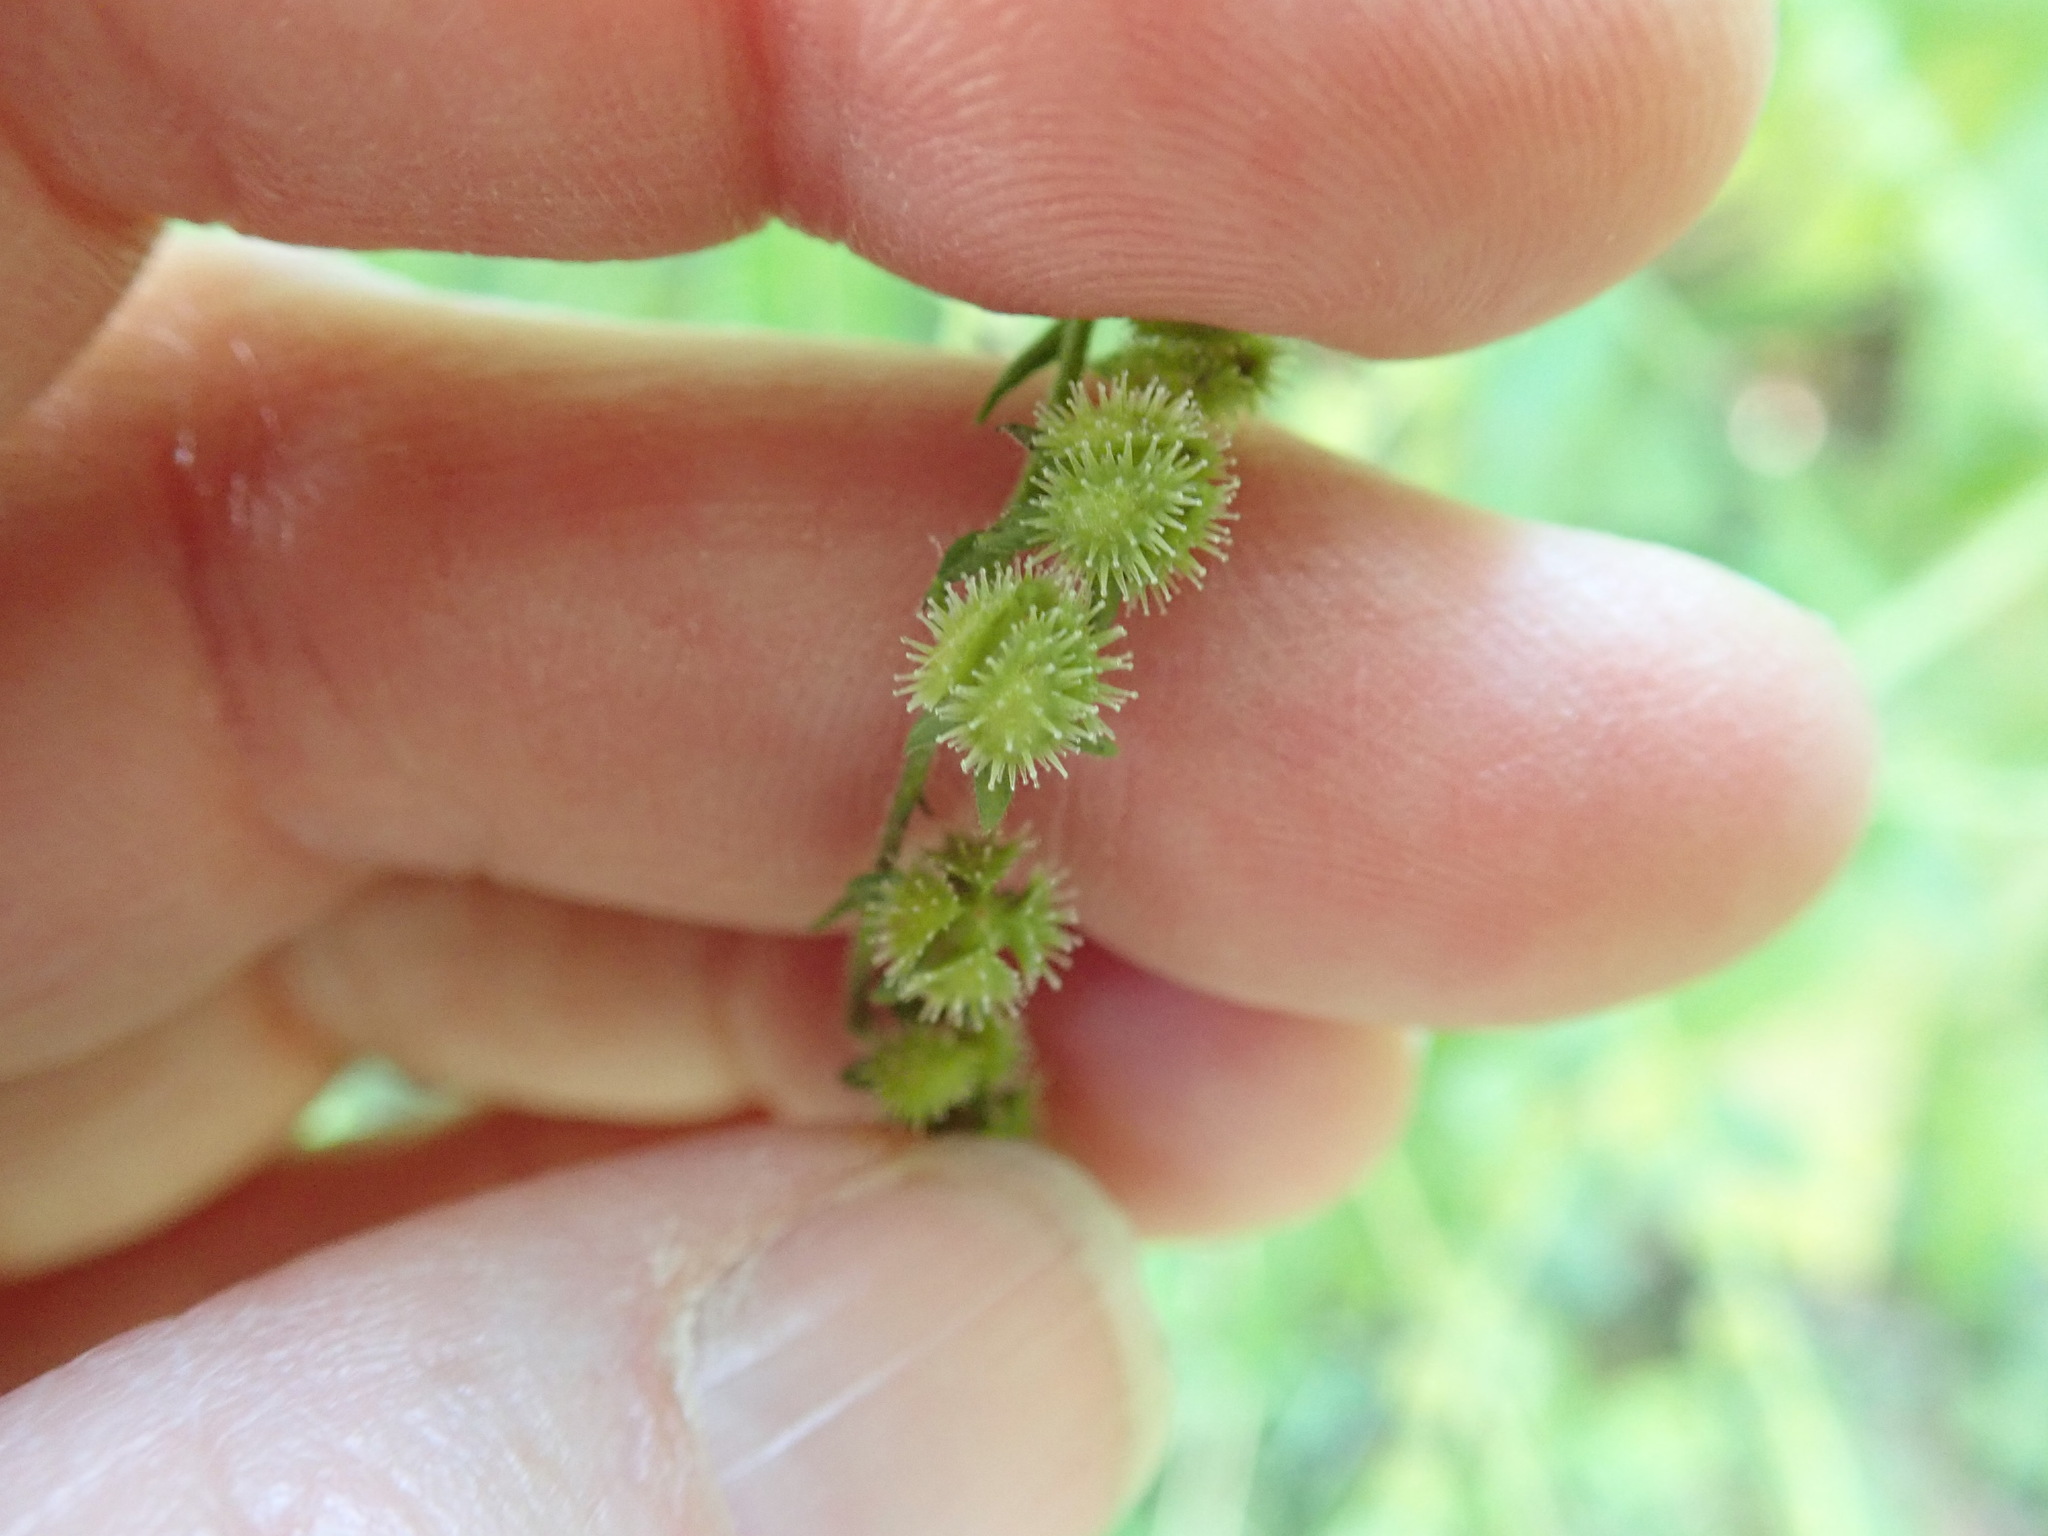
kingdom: Plantae
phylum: Tracheophyta
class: Magnoliopsida
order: Boraginales
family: Boraginaceae
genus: Hackelia
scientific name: Hackelia virginiana
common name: Beggar's-lice
